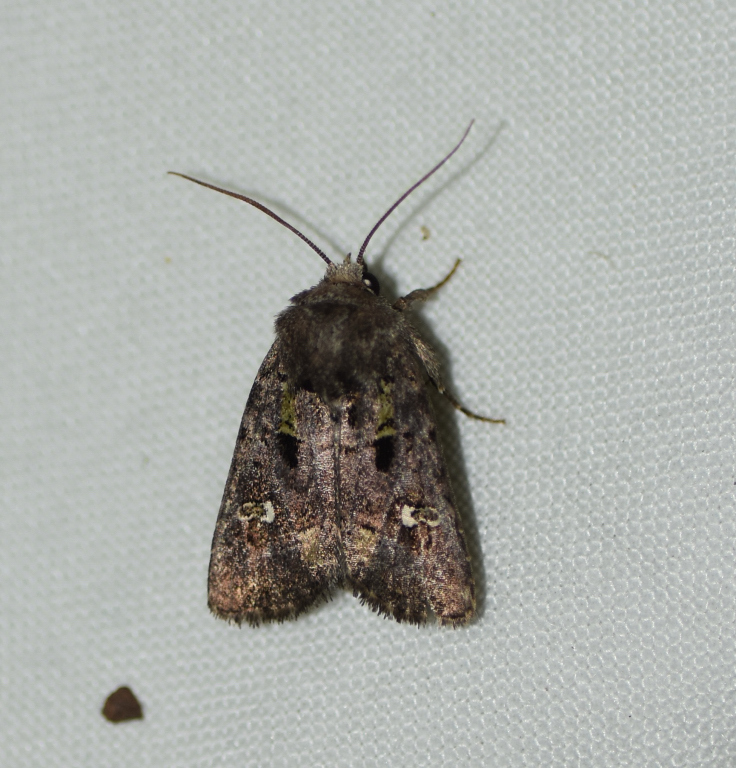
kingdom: Animalia
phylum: Arthropoda
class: Insecta
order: Lepidoptera
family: Noctuidae
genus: Lacinipolia
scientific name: Lacinipolia renigera
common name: Kidney-spotted minor
